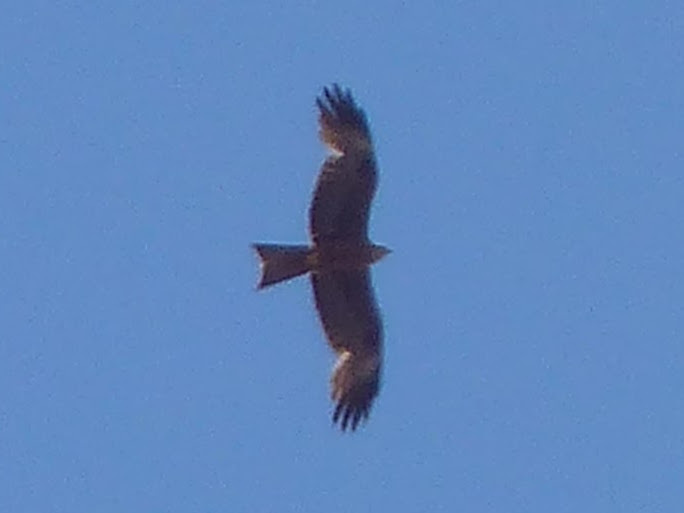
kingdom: Animalia
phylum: Chordata
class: Aves
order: Accipitriformes
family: Accipitridae
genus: Milvus
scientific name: Milvus migrans
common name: Black kite
